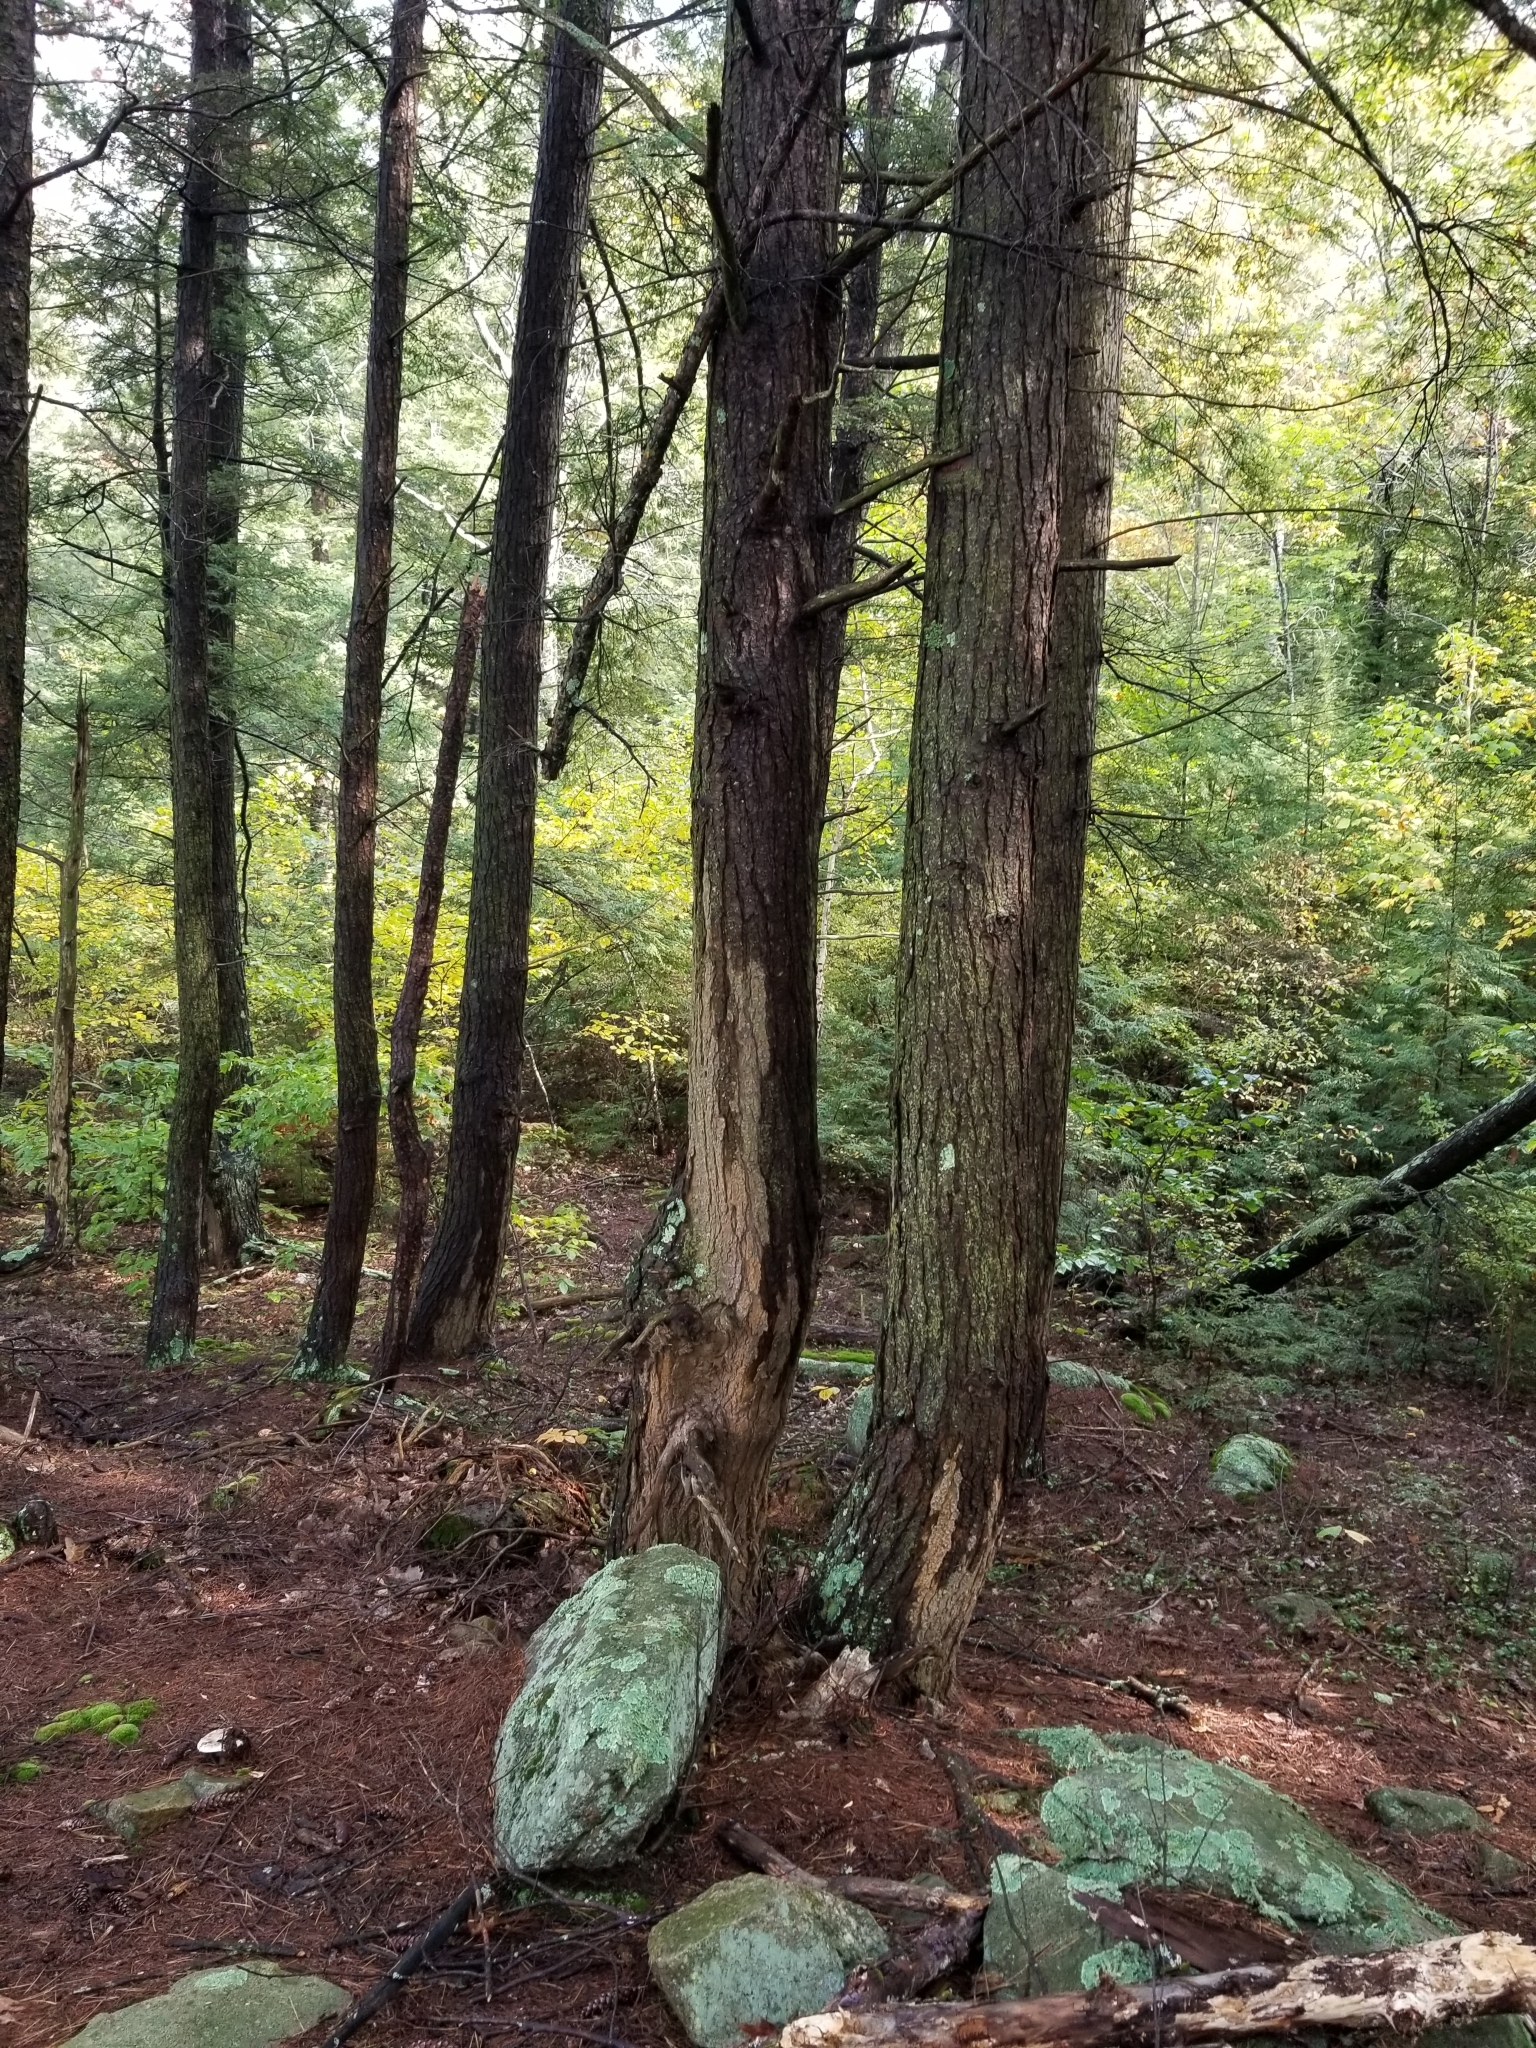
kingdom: Plantae
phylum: Tracheophyta
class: Pinopsida
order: Pinales
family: Pinaceae
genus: Tsuga
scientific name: Tsuga canadensis
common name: Eastern hemlock
